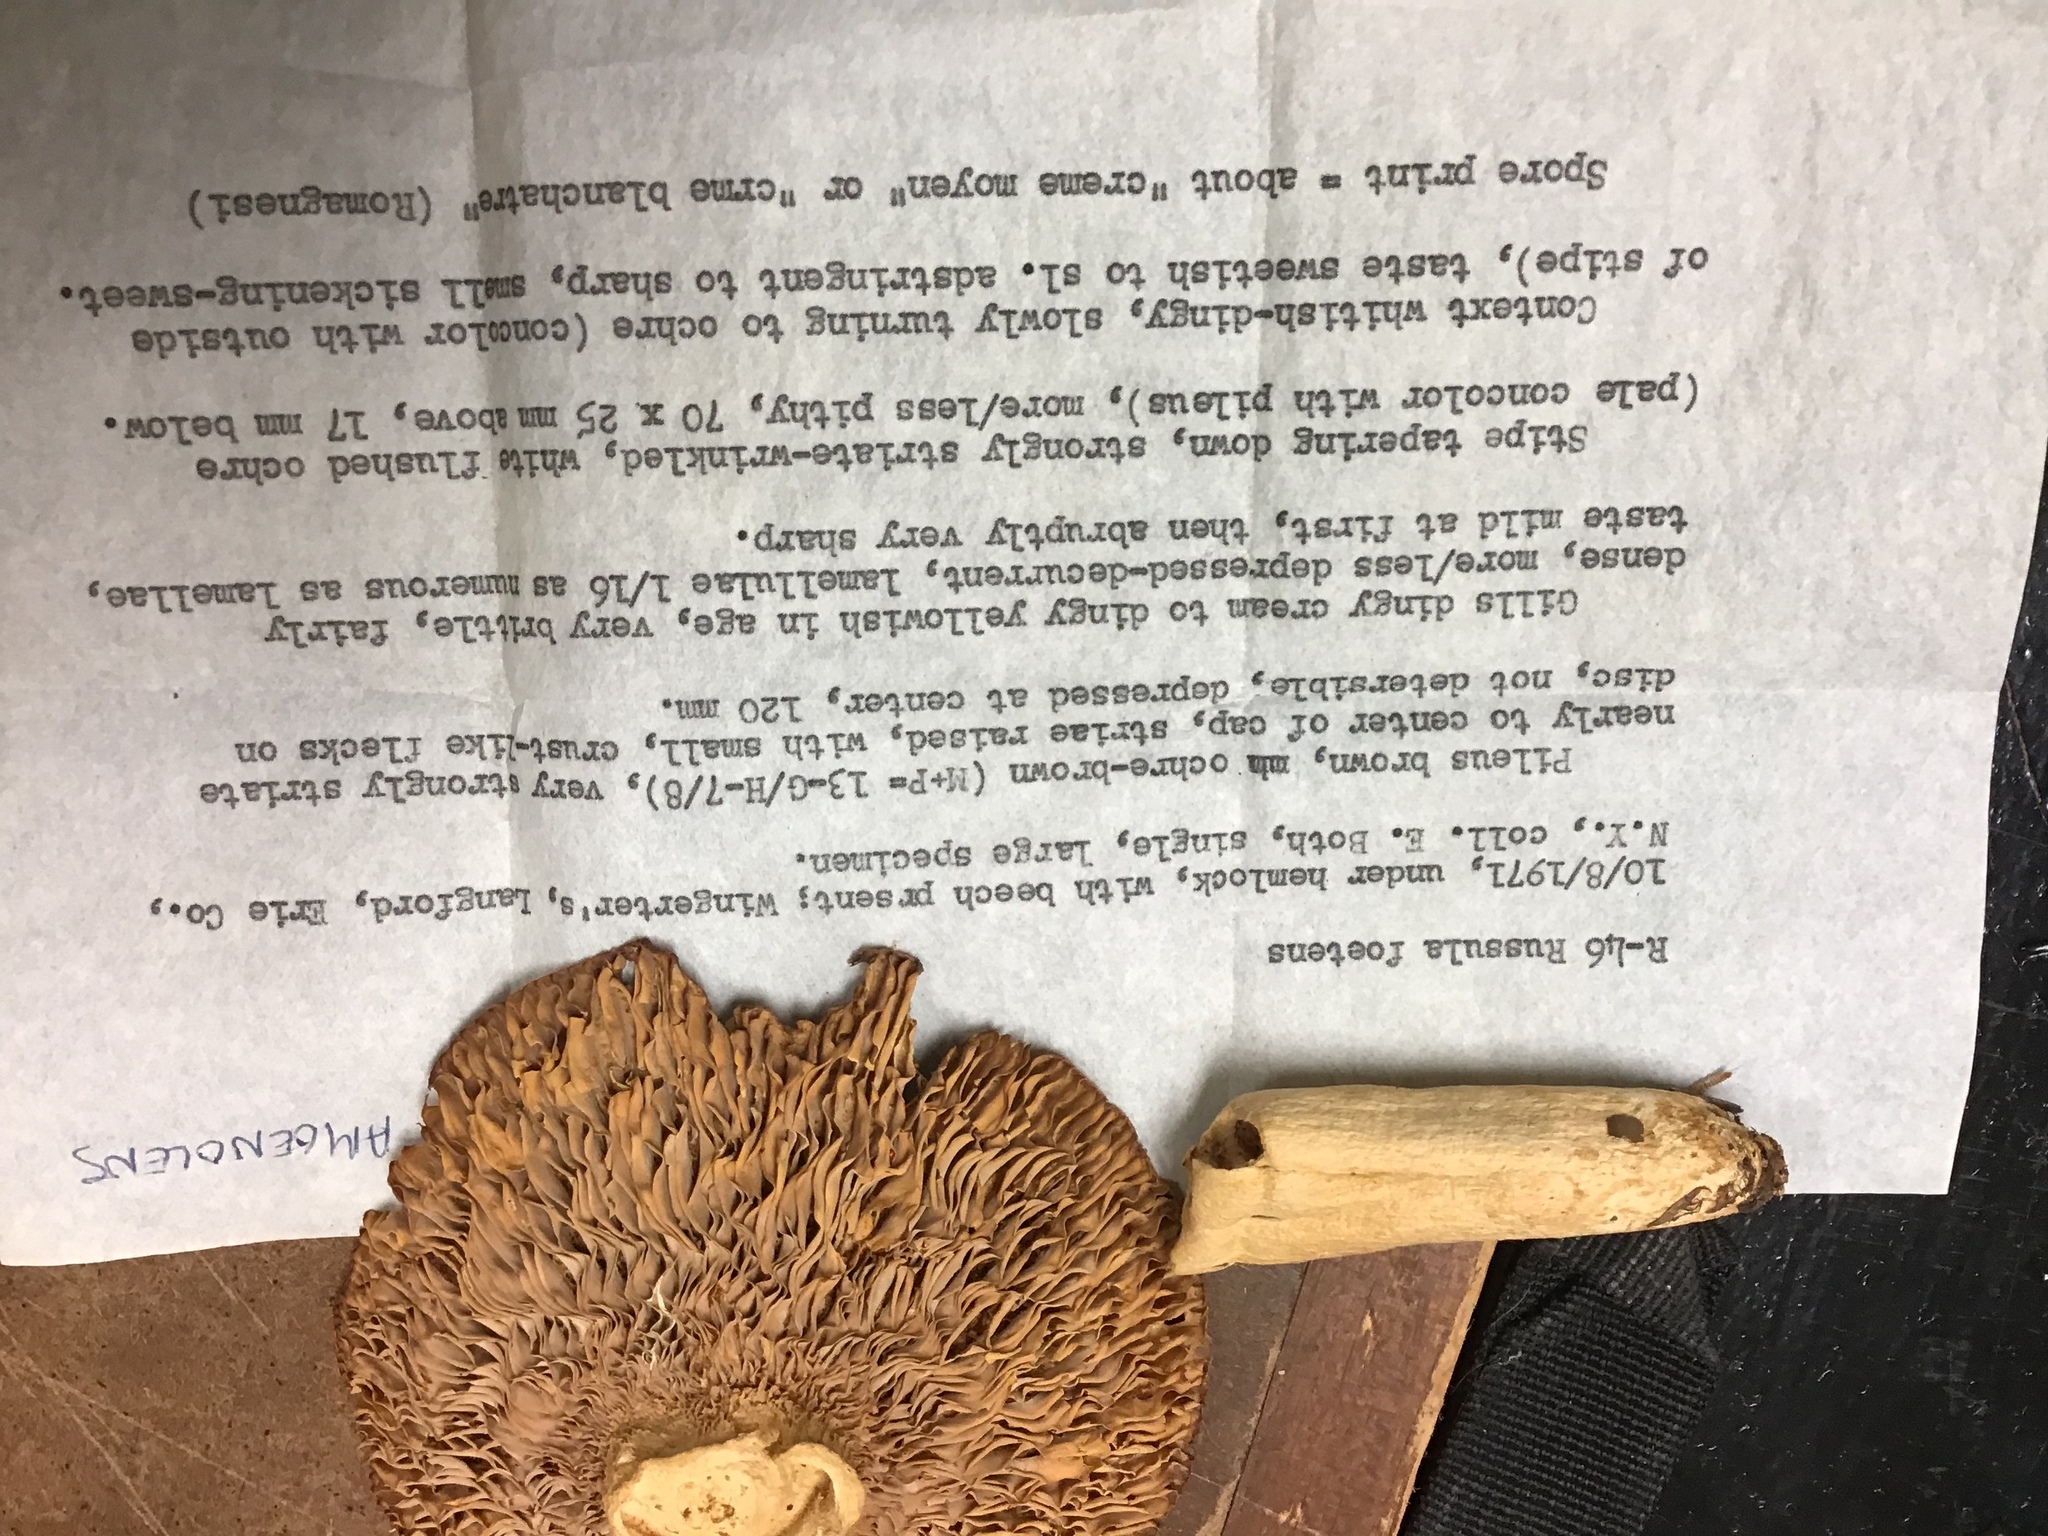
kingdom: Fungi
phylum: Basidiomycota
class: Agaricomycetes
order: Russulales
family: Russulaceae
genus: Russula
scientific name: Russula amoenolens
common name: Camembert brittlegill
